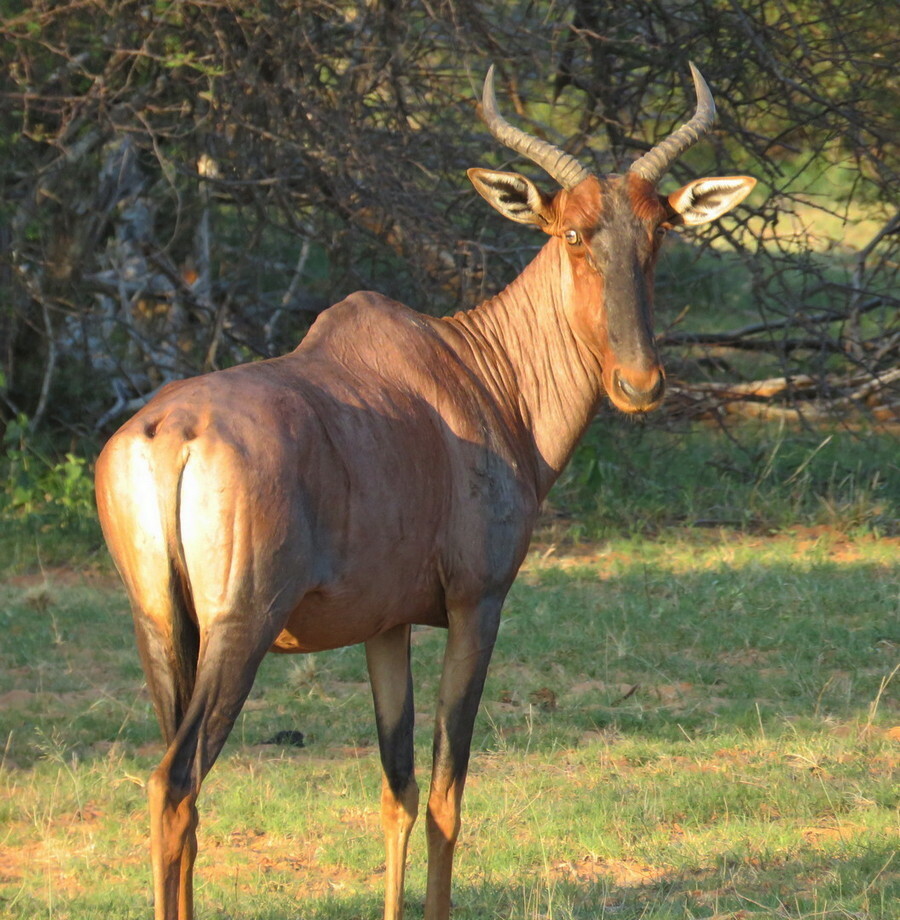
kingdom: Animalia
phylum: Chordata
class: Mammalia
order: Artiodactyla
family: Bovidae
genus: Damaliscus
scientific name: Damaliscus lunatus
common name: Common tsessebe
